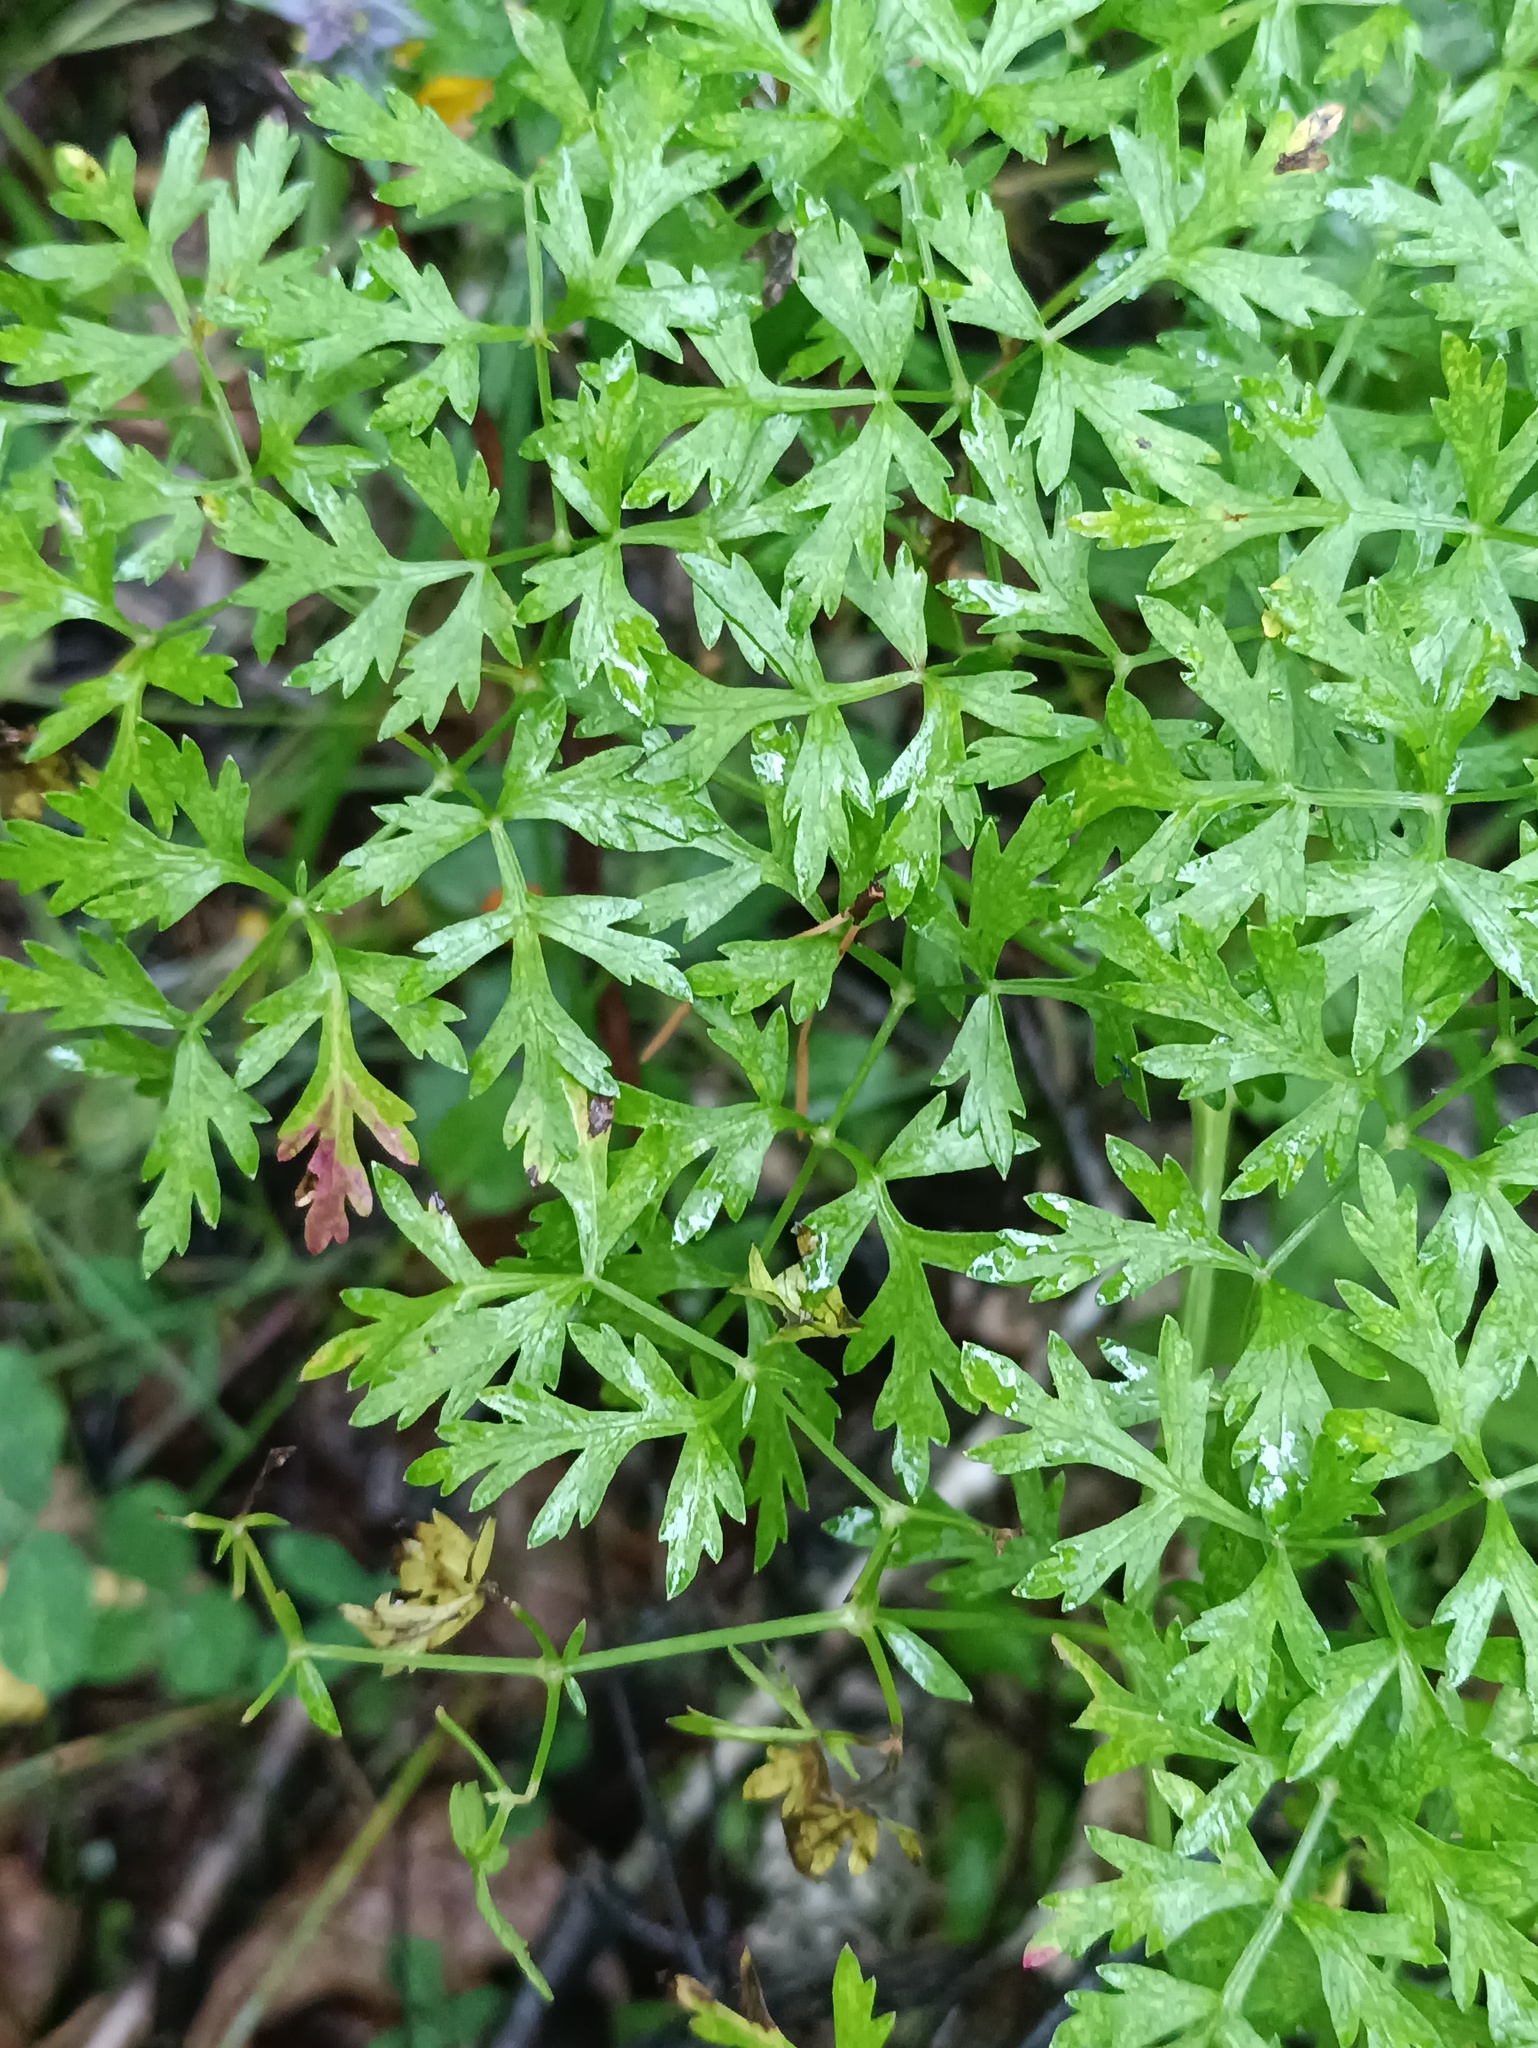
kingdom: Plantae
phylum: Tracheophyta
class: Magnoliopsida
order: Apiales
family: Apiaceae
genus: Oreoselinum
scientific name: Oreoselinum nigrum
